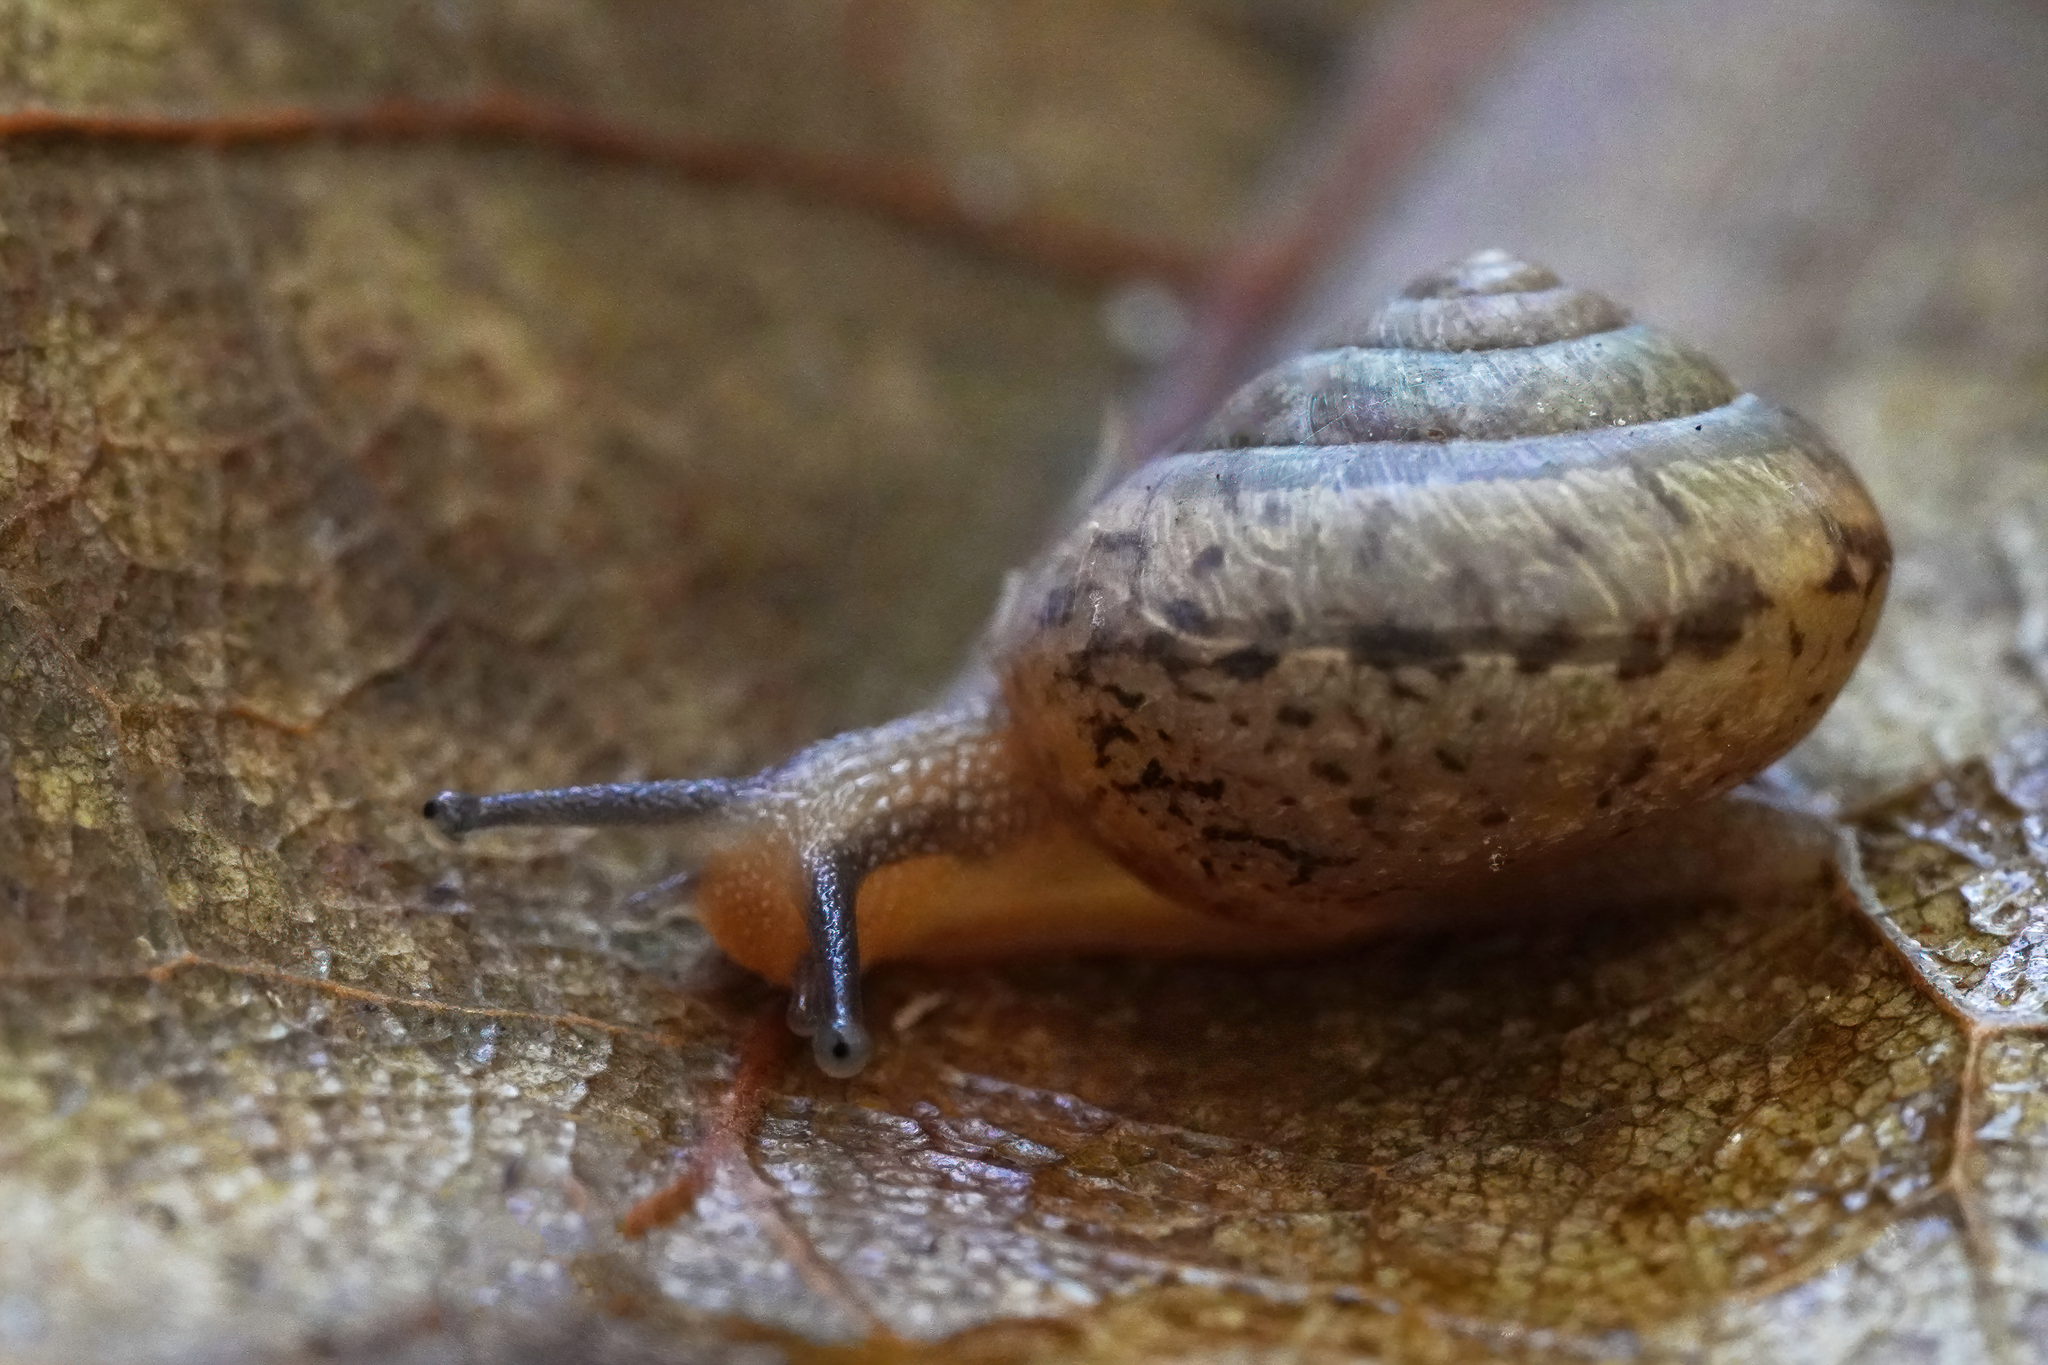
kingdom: Animalia
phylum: Mollusca
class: Gastropoda
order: Stylommatophora
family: Camaenidae
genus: Bradybaena
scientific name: Bradybaena similaris
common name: Asian trampsnail
